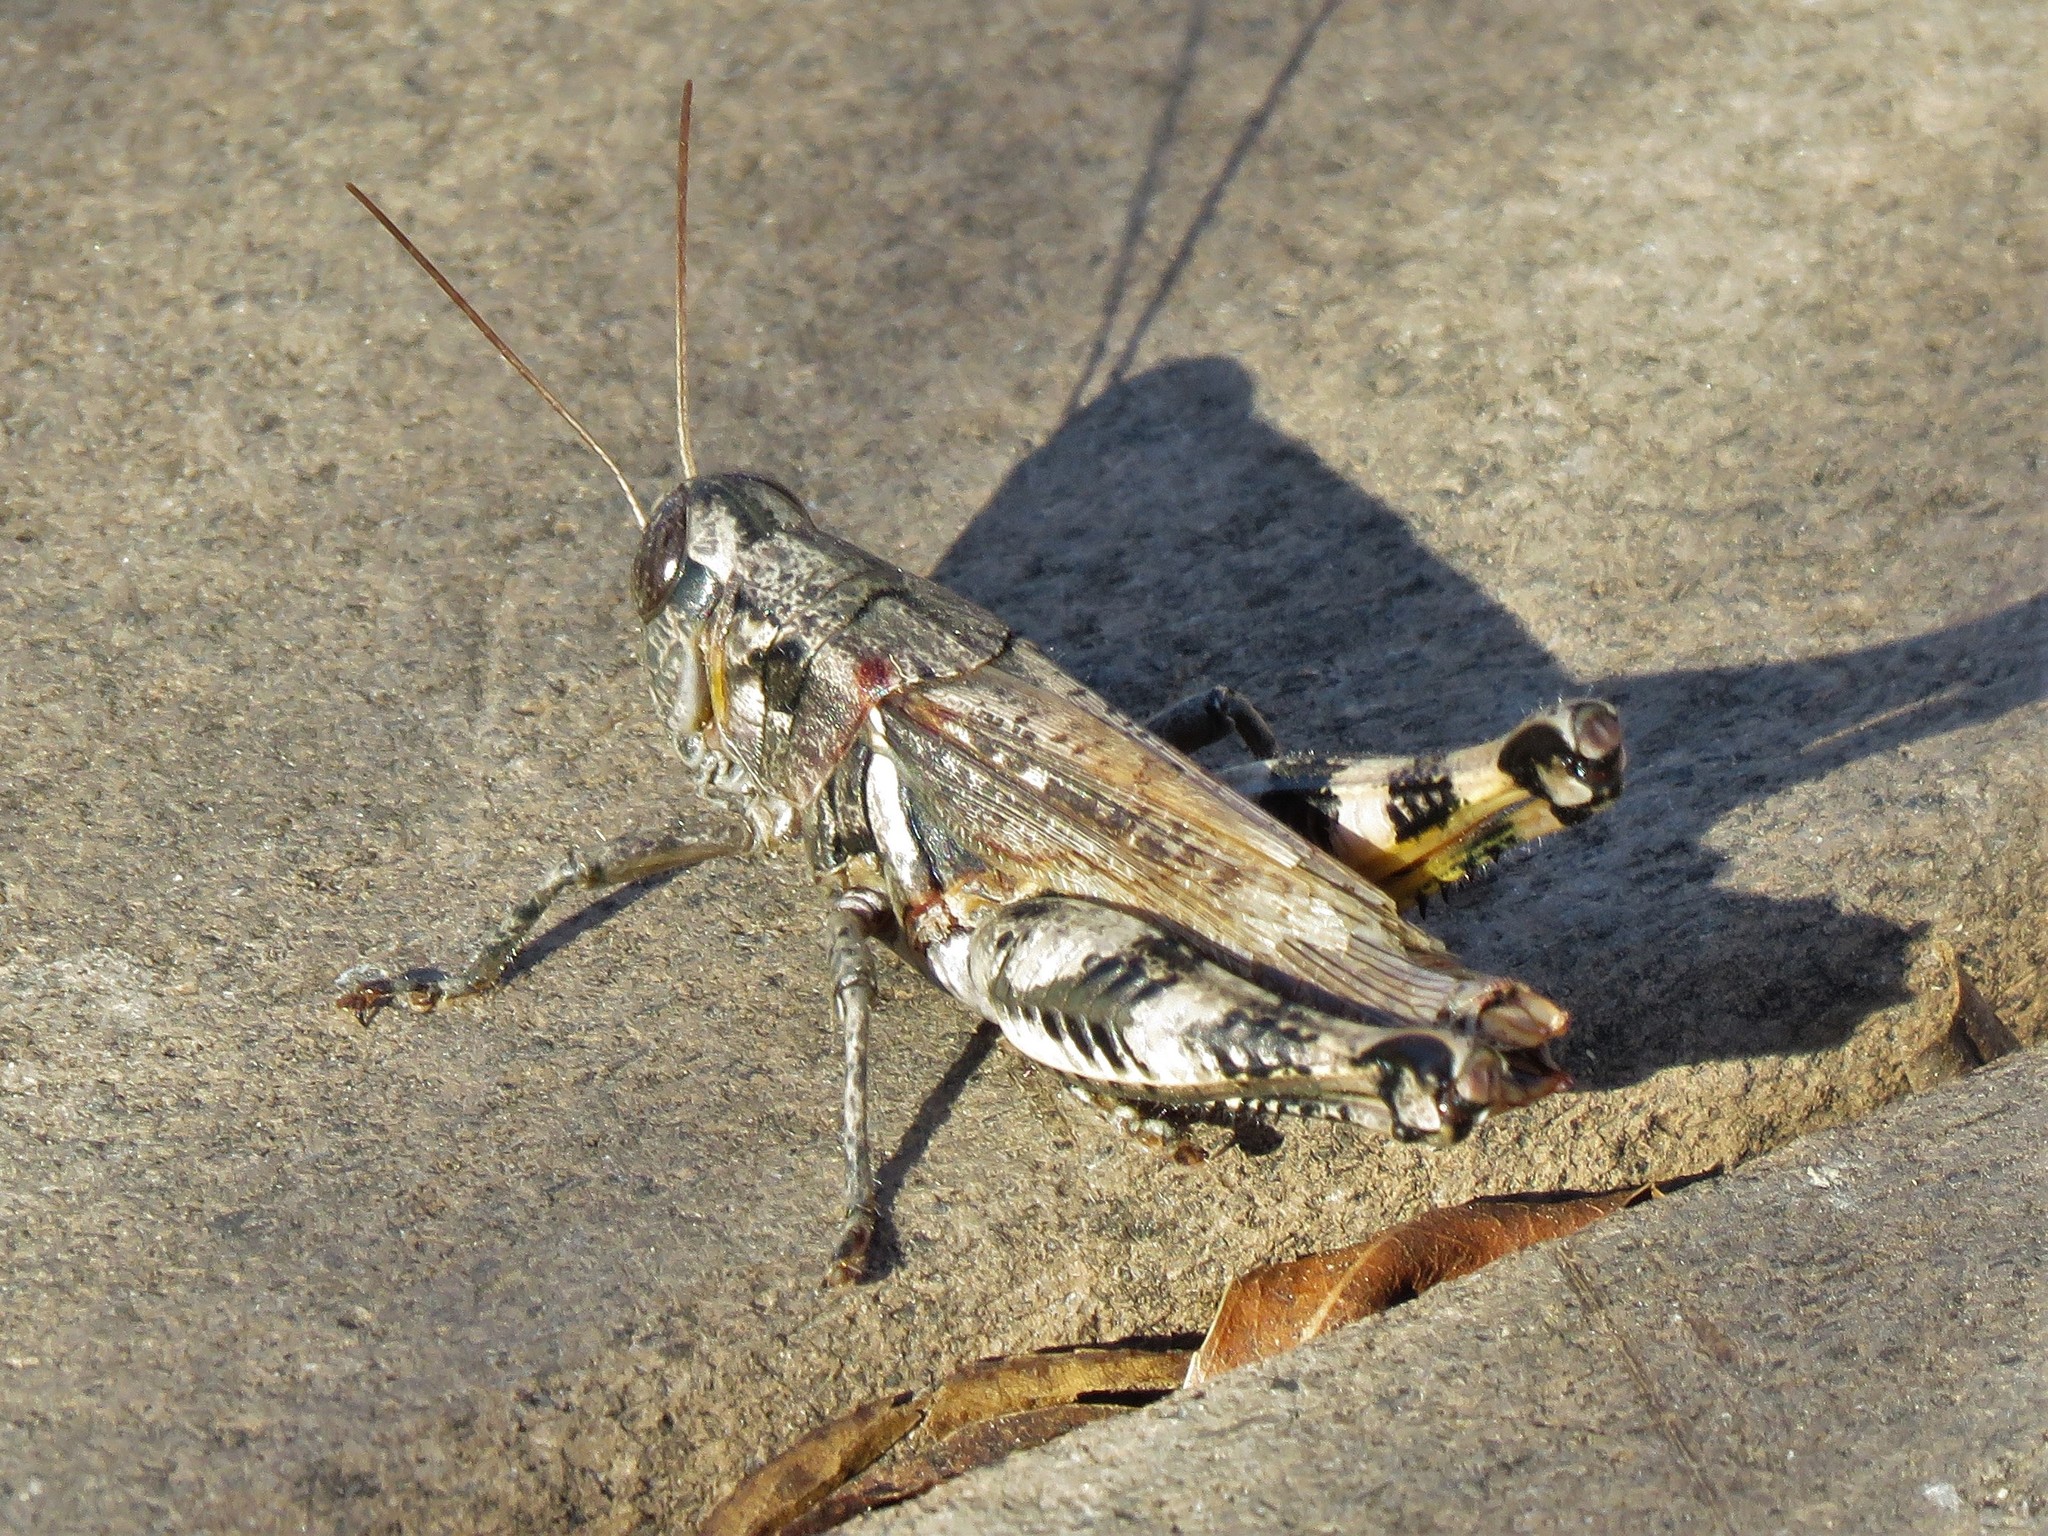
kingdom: Animalia
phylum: Arthropoda
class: Insecta
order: Orthoptera
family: Acrididae
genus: Melanoplus
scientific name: Melanoplus ponderosus
